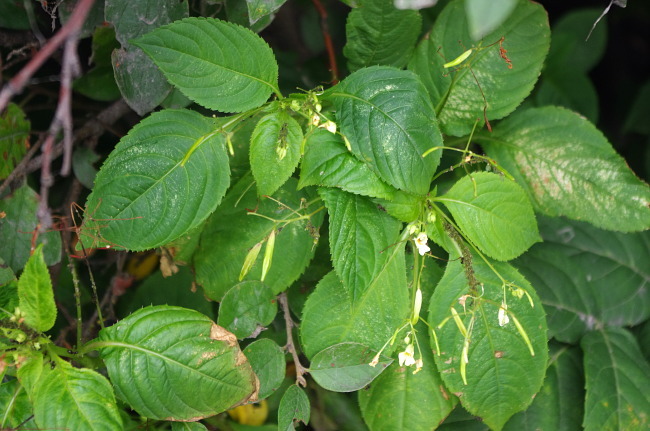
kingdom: Plantae
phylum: Tracheophyta
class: Magnoliopsida
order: Ericales
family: Balsaminaceae
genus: Impatiens
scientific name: Impatiens parviflora
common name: Small balsam
